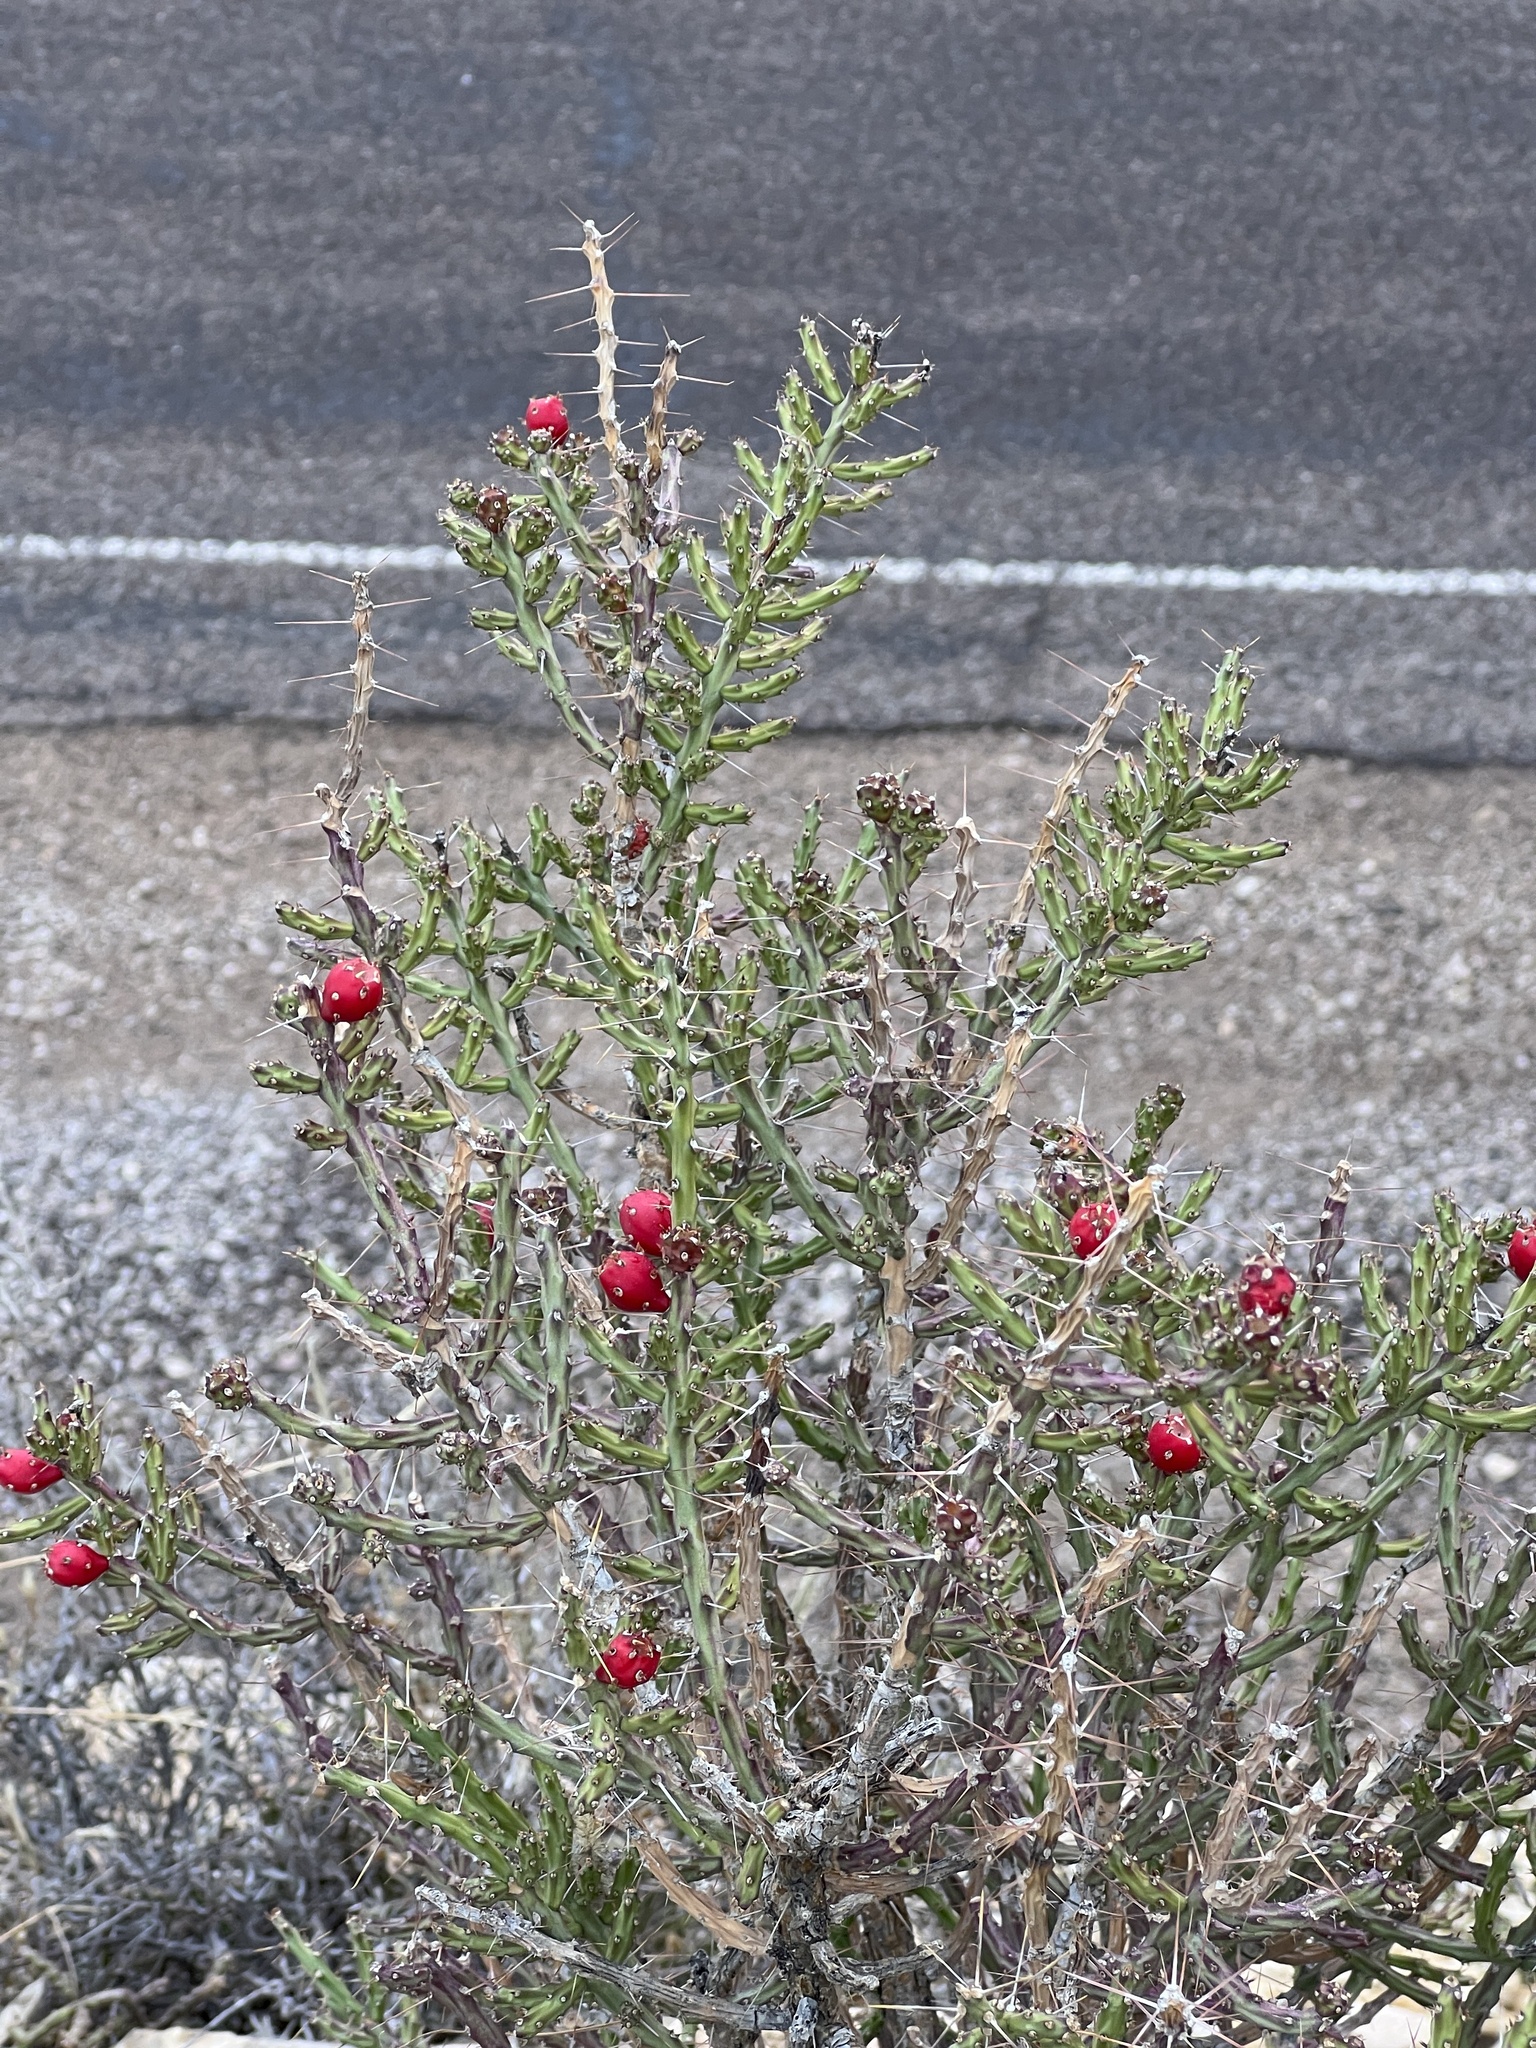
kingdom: Plantae
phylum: Tracheophyta
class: Magnoliopsida
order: Caryophyllales
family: Cactaceae
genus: Cylindropuntia
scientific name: Cylindropuntia leptocaulis
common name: Christmas cactus
